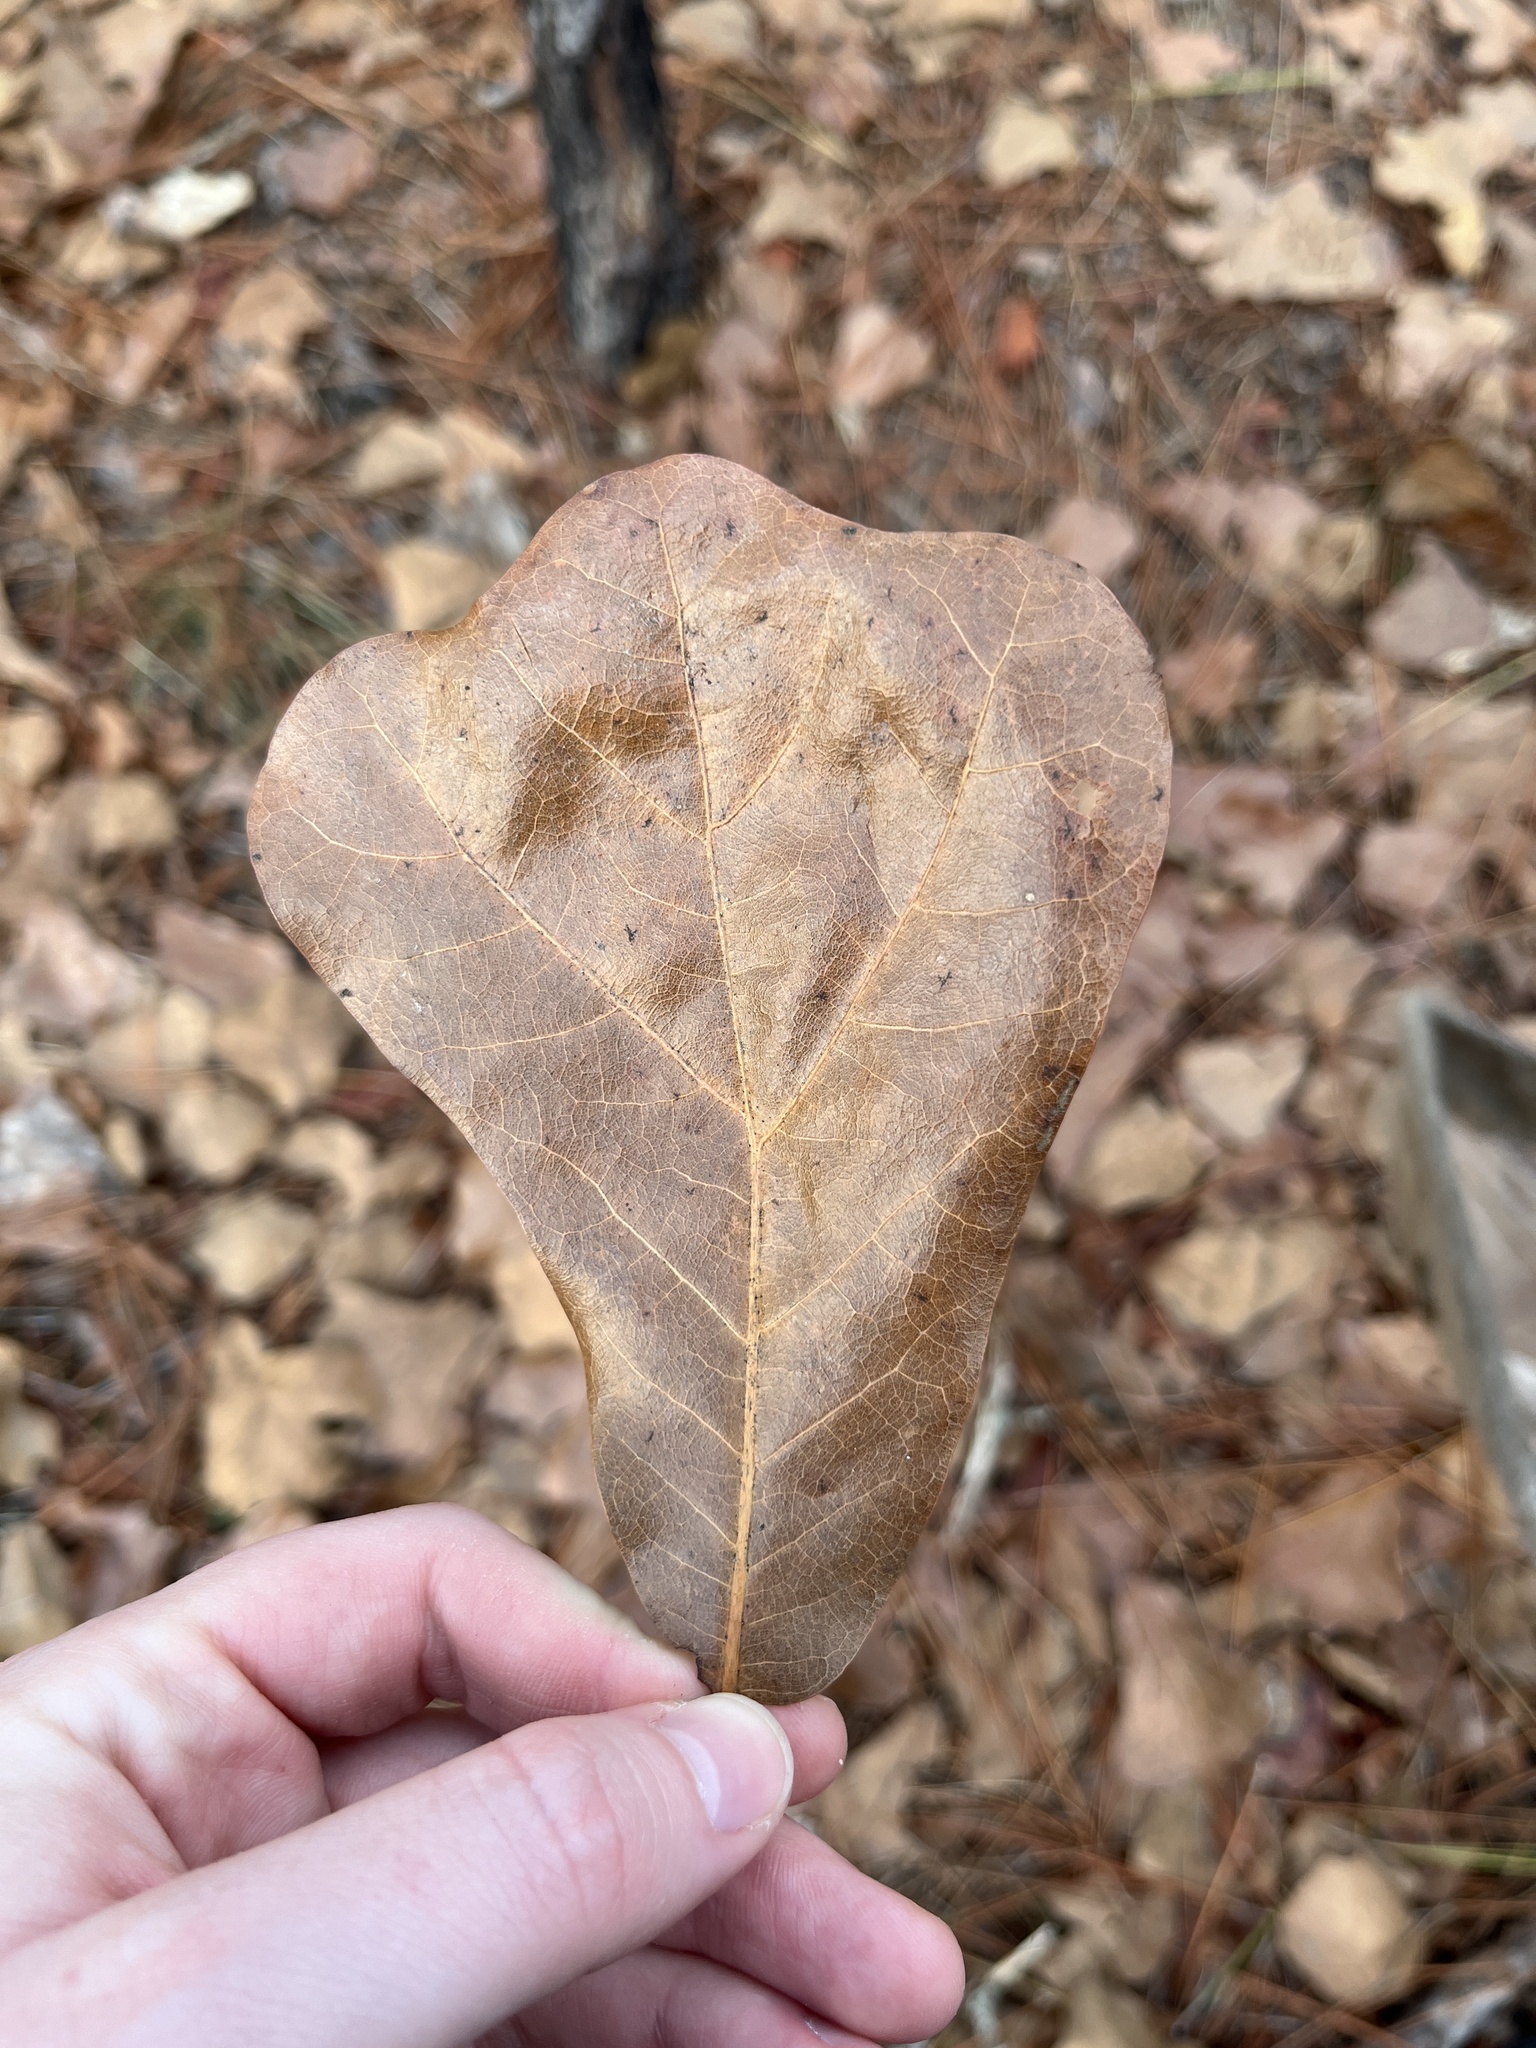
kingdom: Plantae
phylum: Tracheophyta
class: Magnoliopsida
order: Fagales
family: Fagaceae
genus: Quercus
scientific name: Quercus marilandica
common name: Blackjack oak
